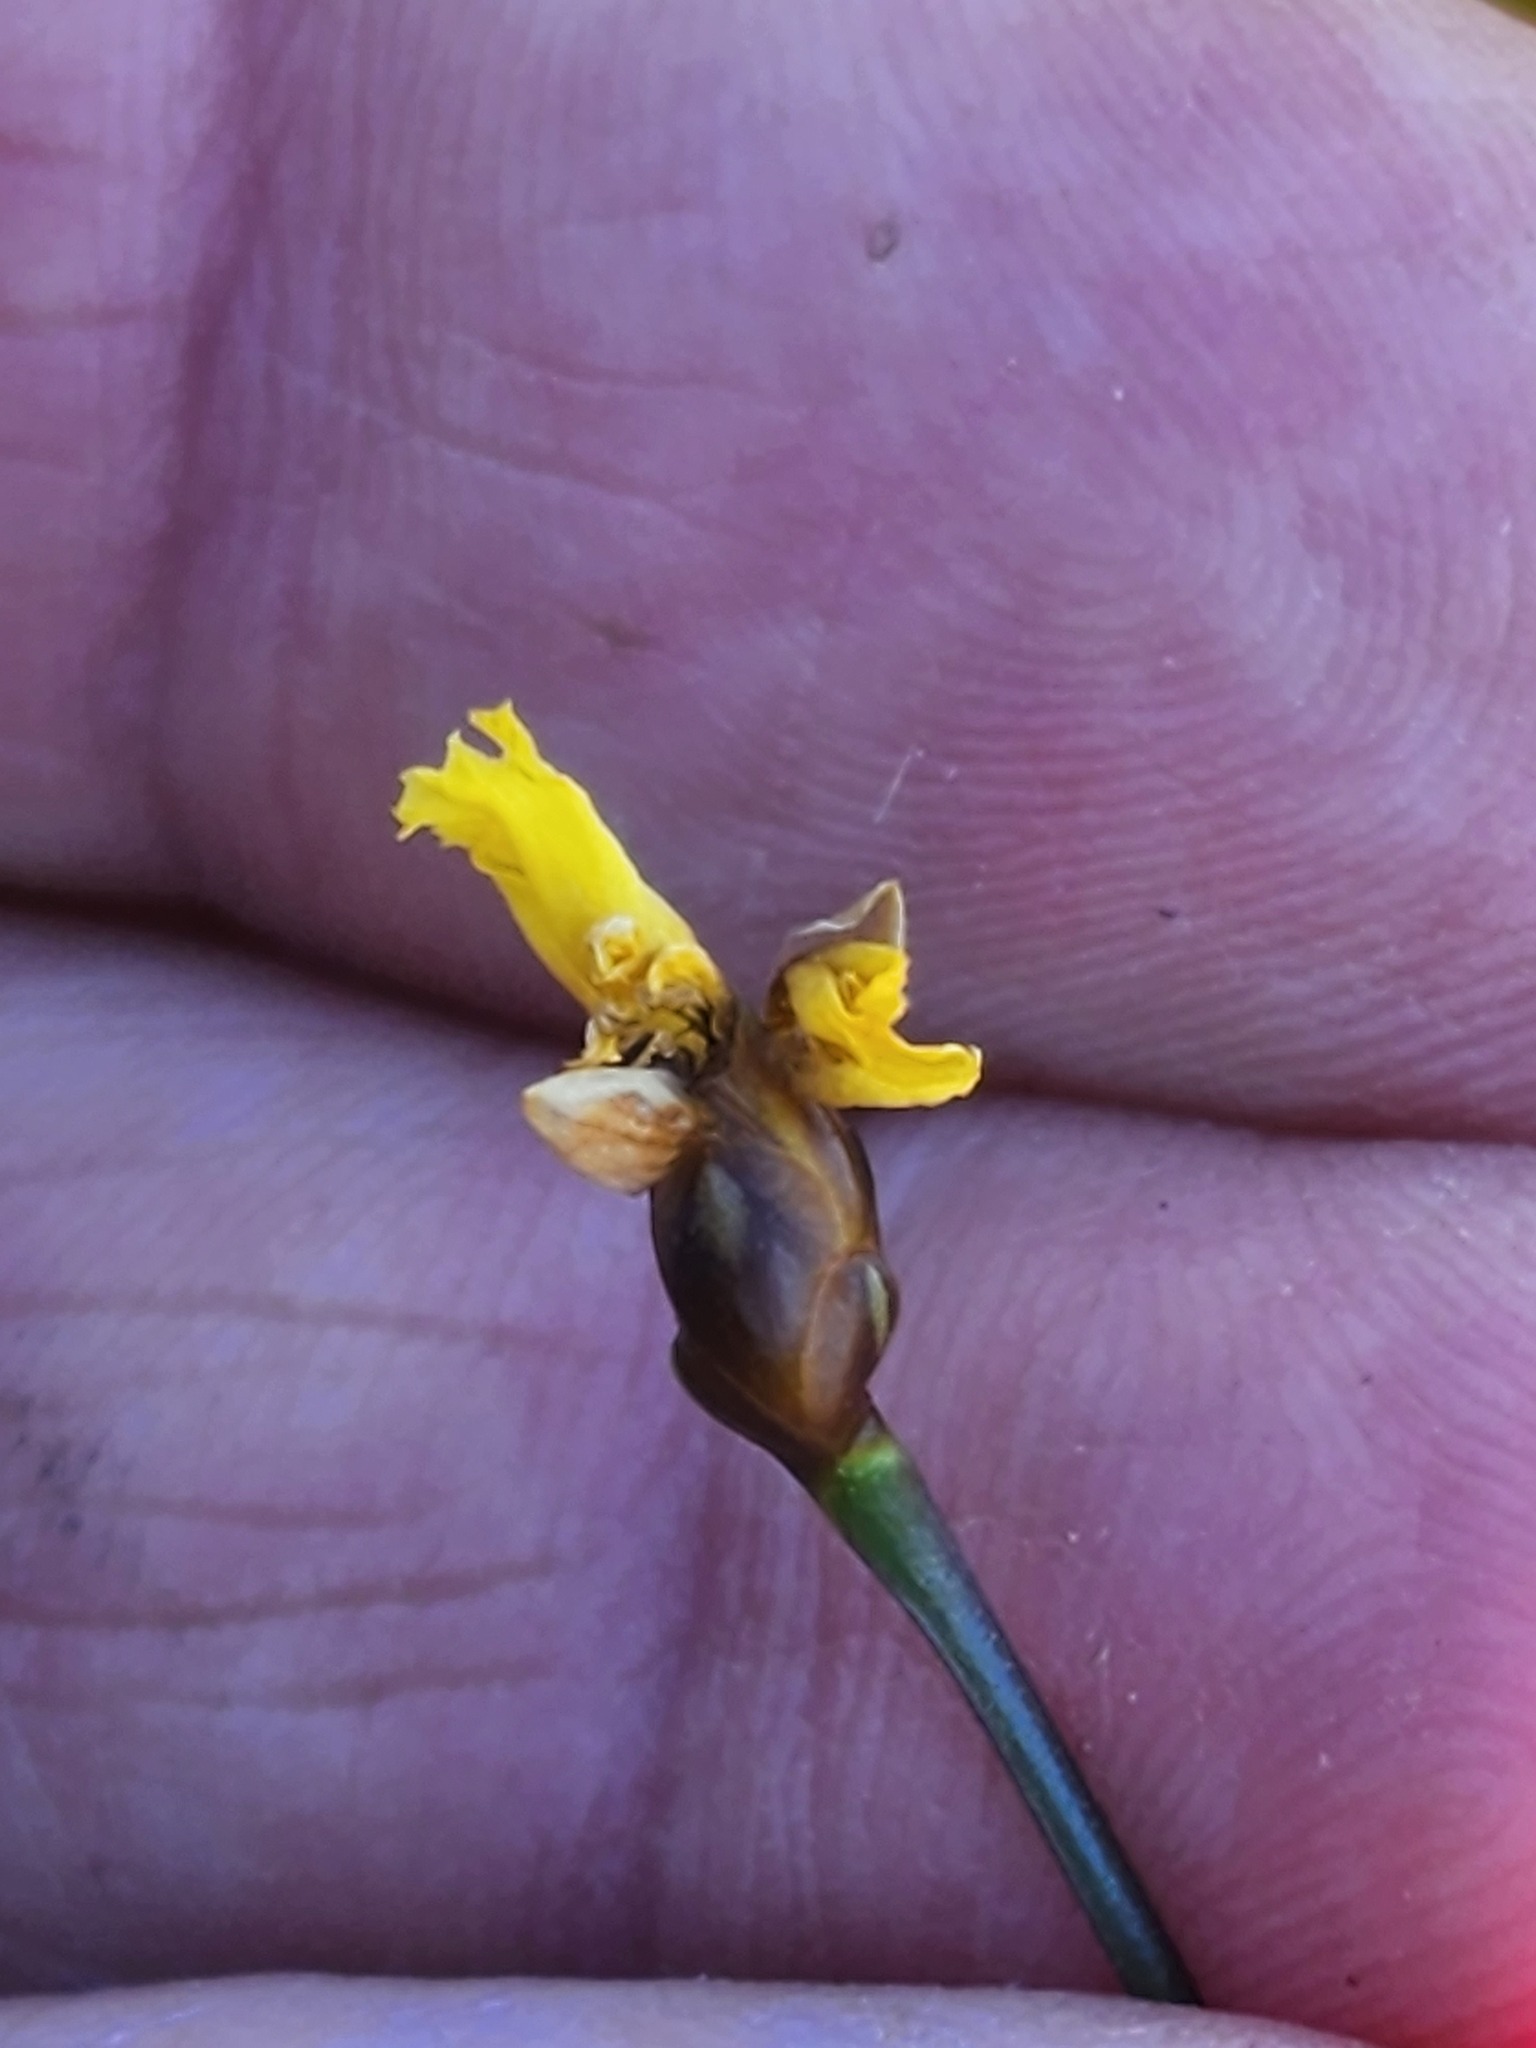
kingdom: Plantae
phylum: Tracheophyta
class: Liliopsida
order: Poales
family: Xyridaceae
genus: Xyris
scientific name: Xyris montana
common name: Northern yellow-eyed-grass
